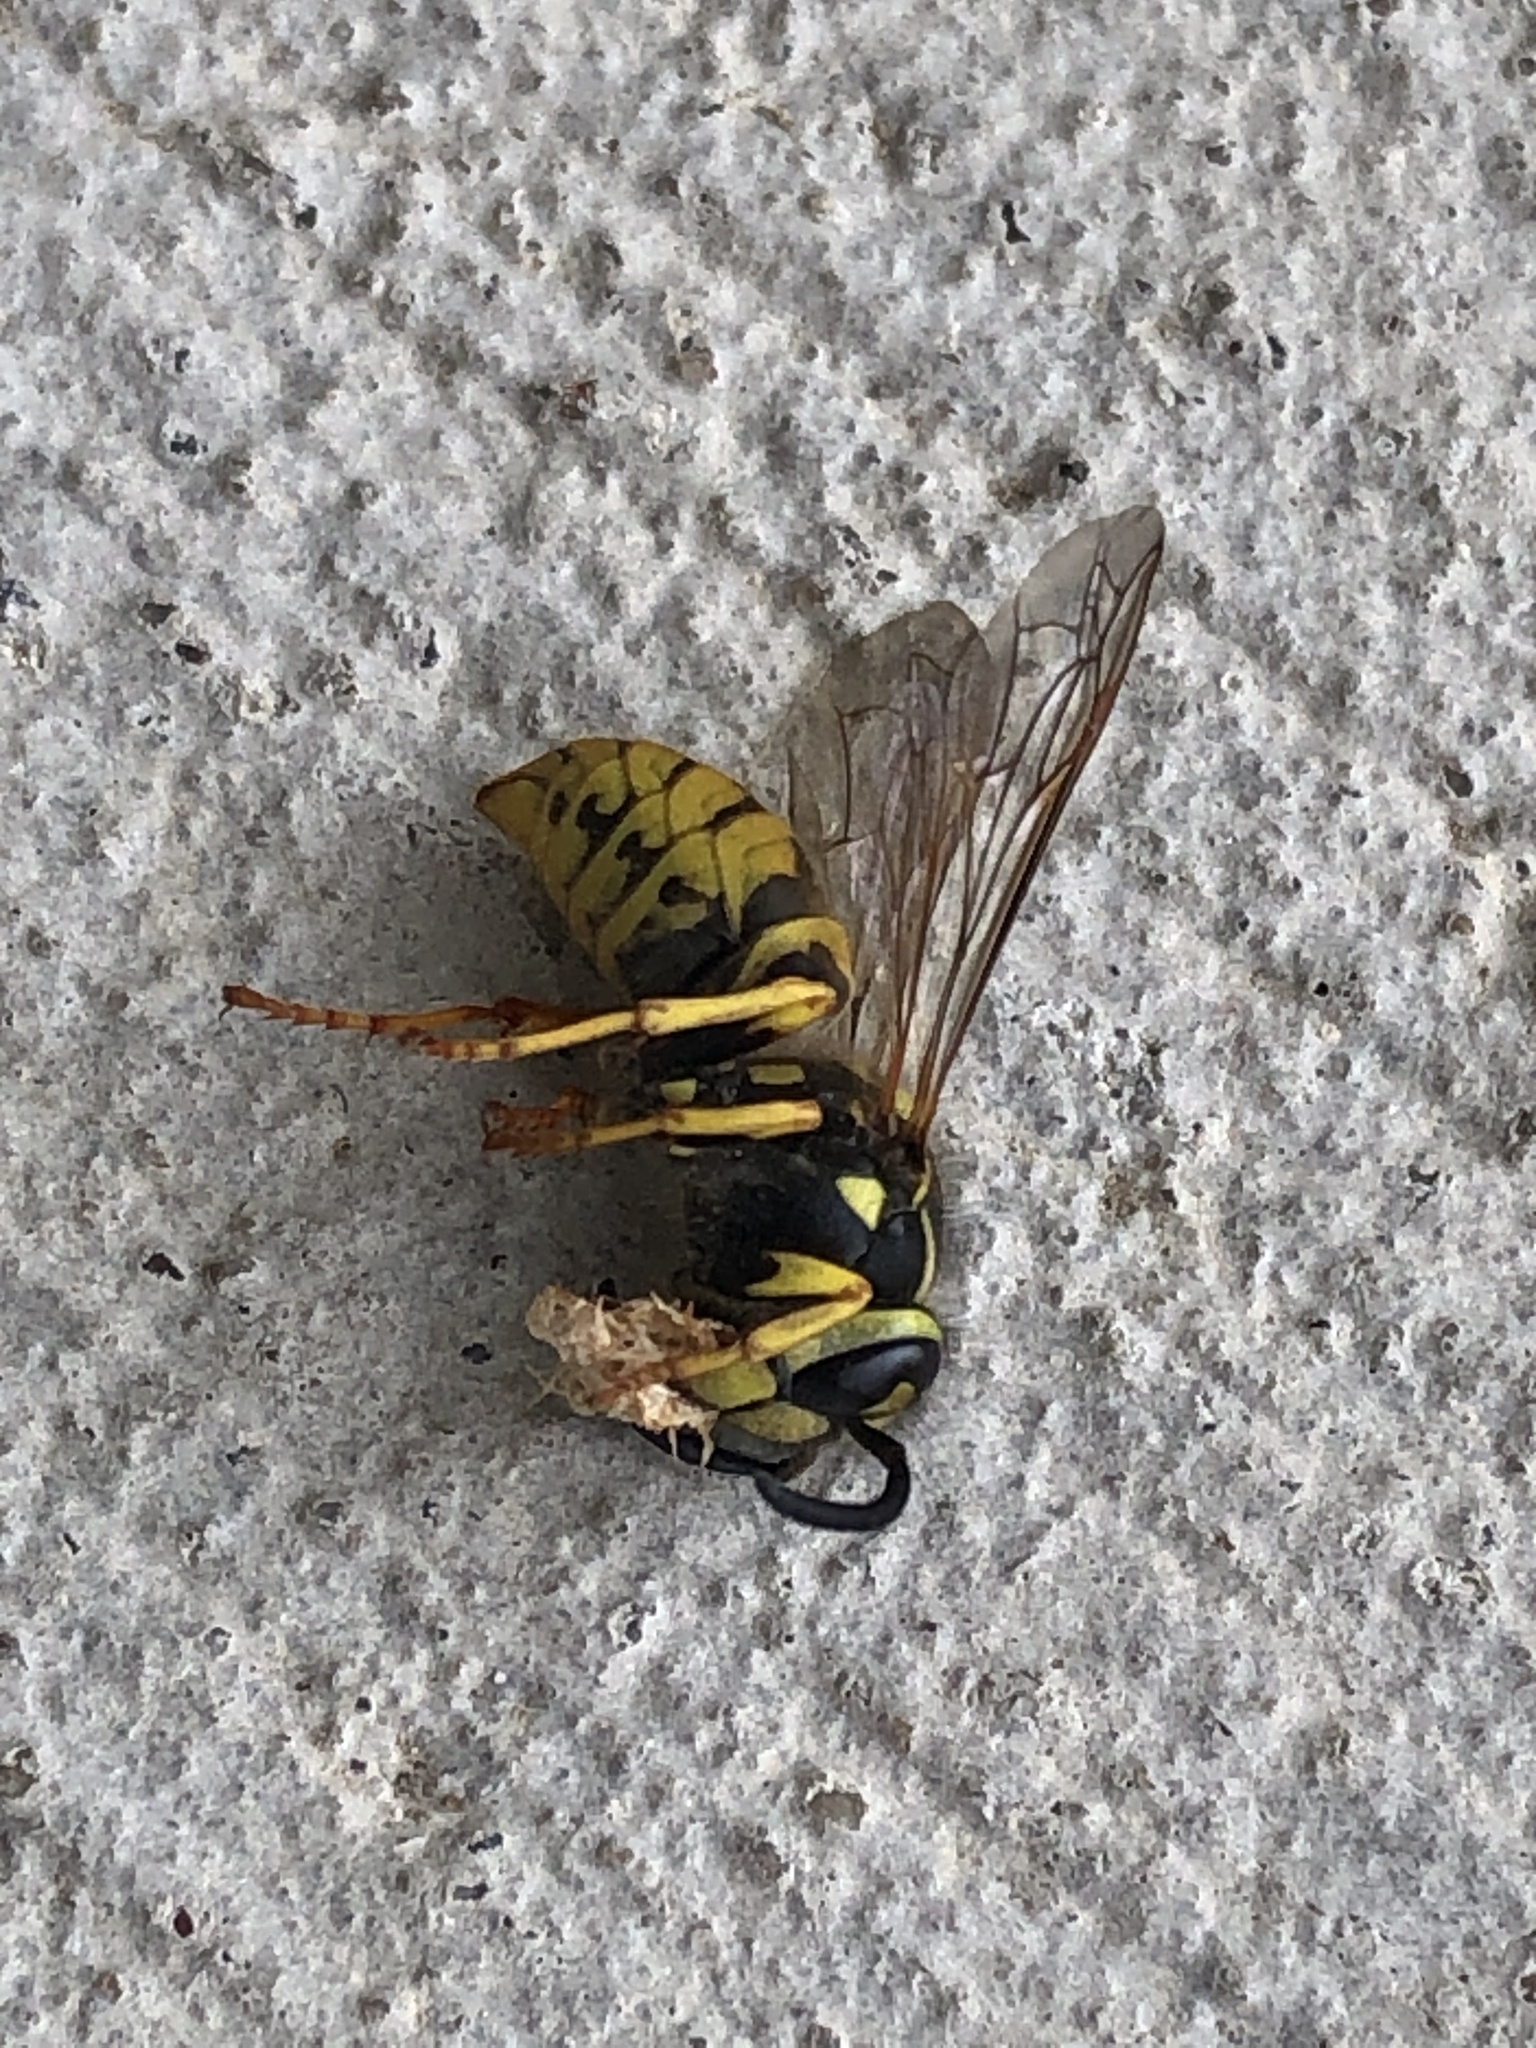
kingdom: Animalia
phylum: Arthropoda
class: Insecta
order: Hymenoptera
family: Vespidae
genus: Vespula
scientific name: Vespula germanica
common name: German wasp
